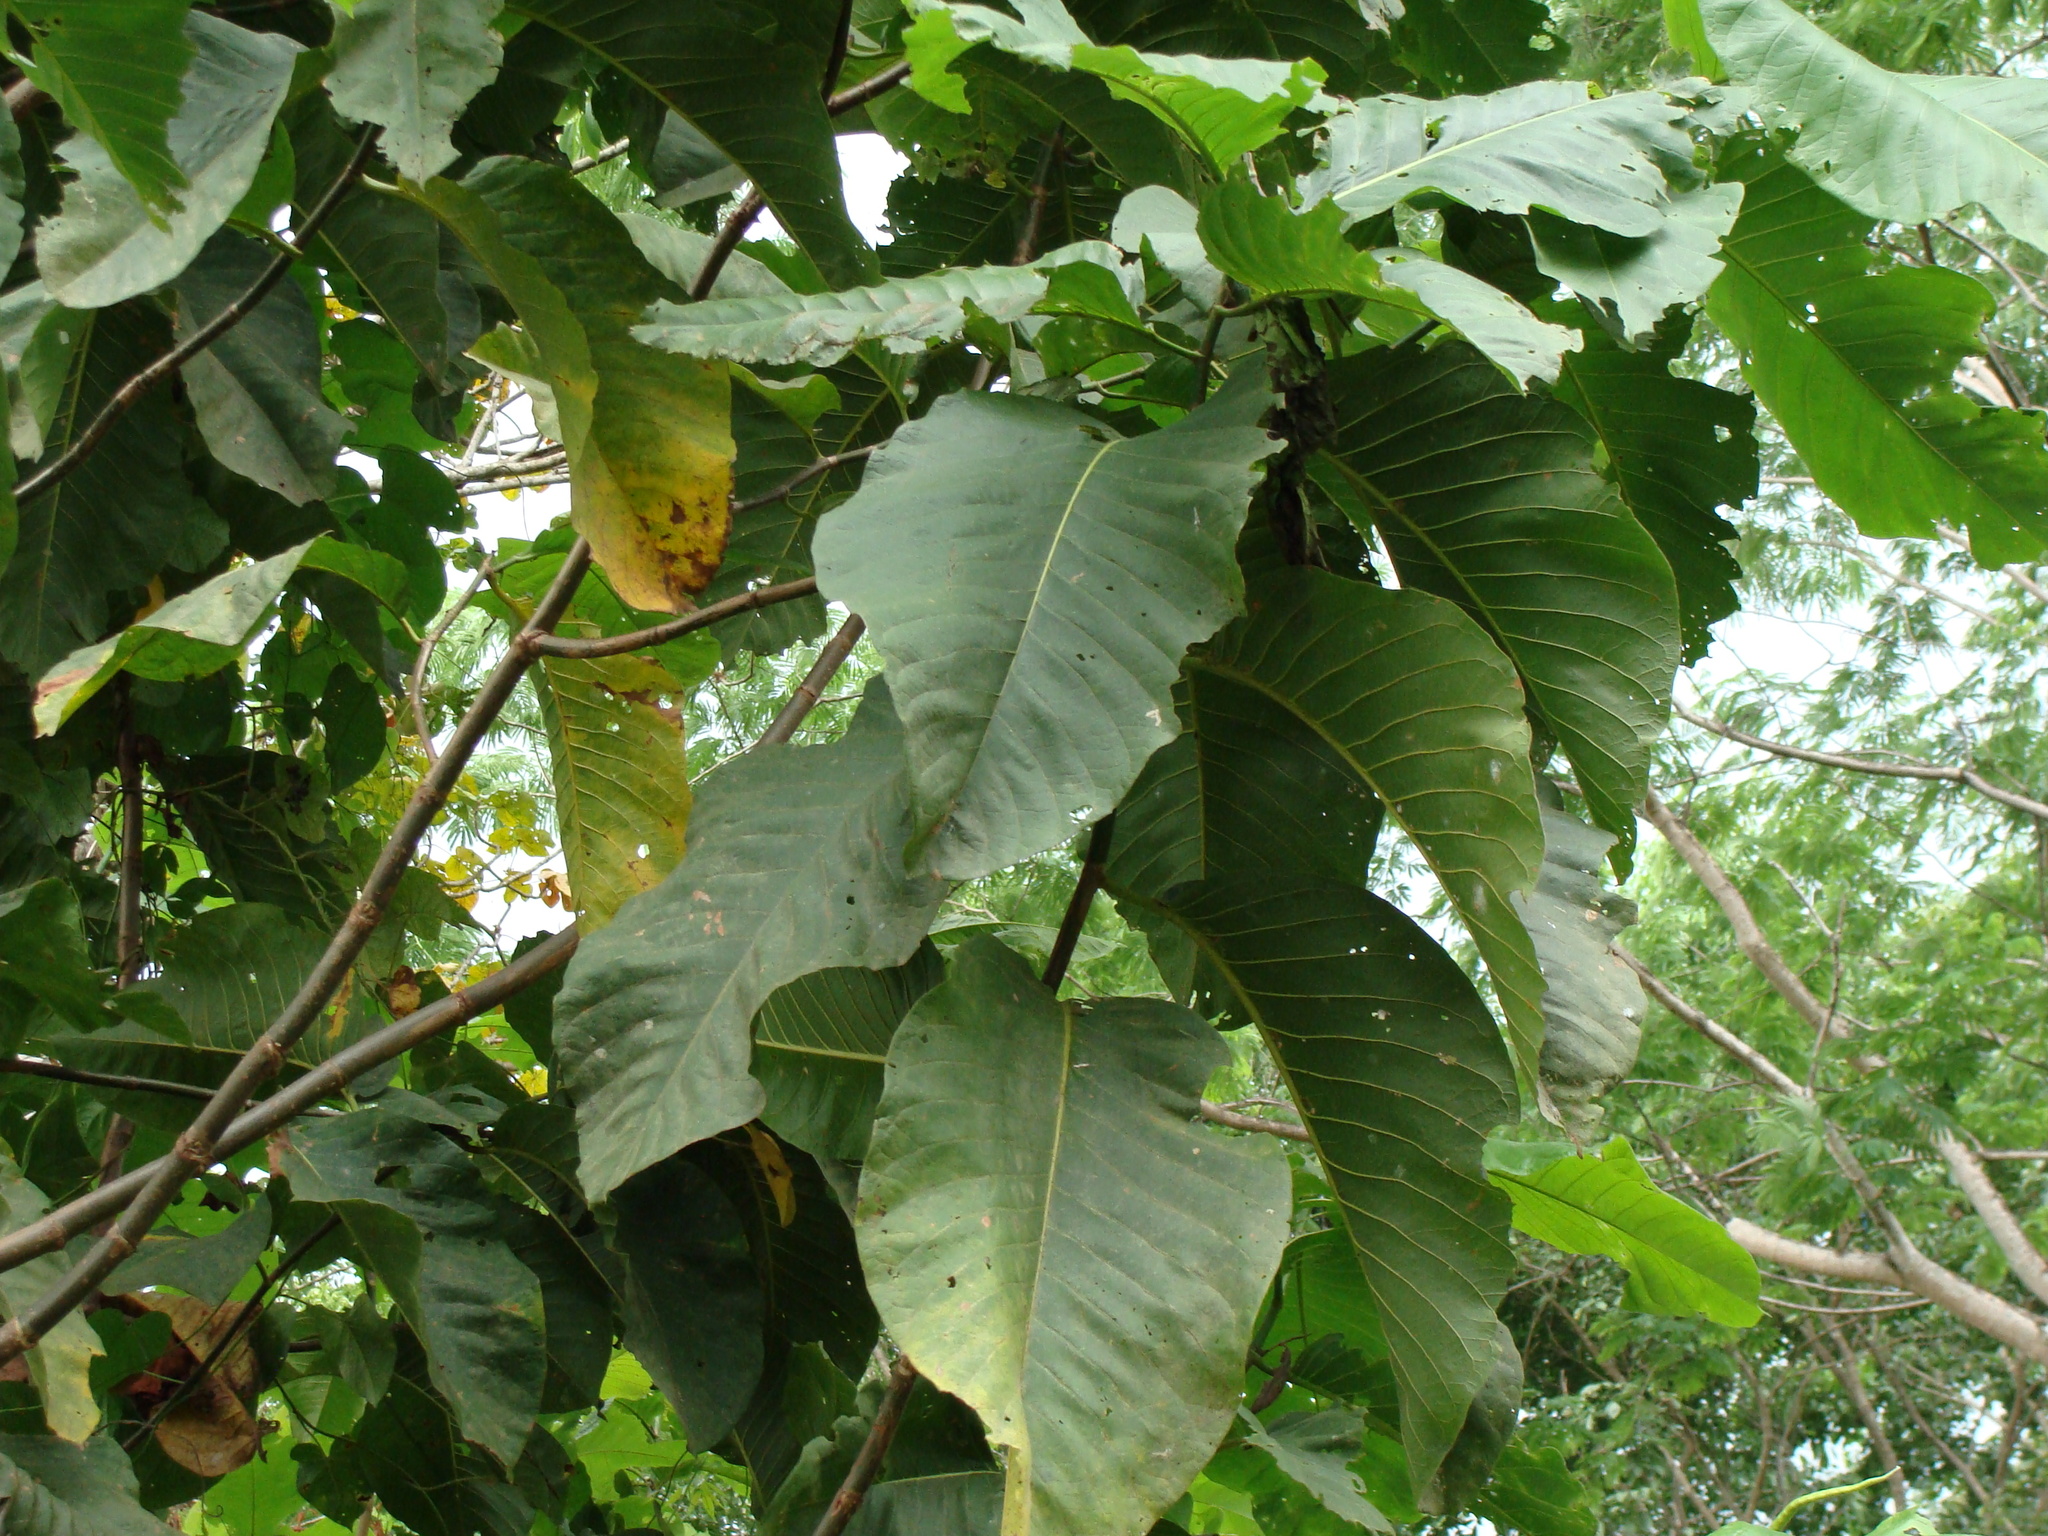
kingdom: Plantae
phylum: Tracheophyta
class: Magnoliopsida
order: Caryophyllales
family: Polygonaceae
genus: Triplaris
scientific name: Triplaris melaenodendron
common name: Long john
